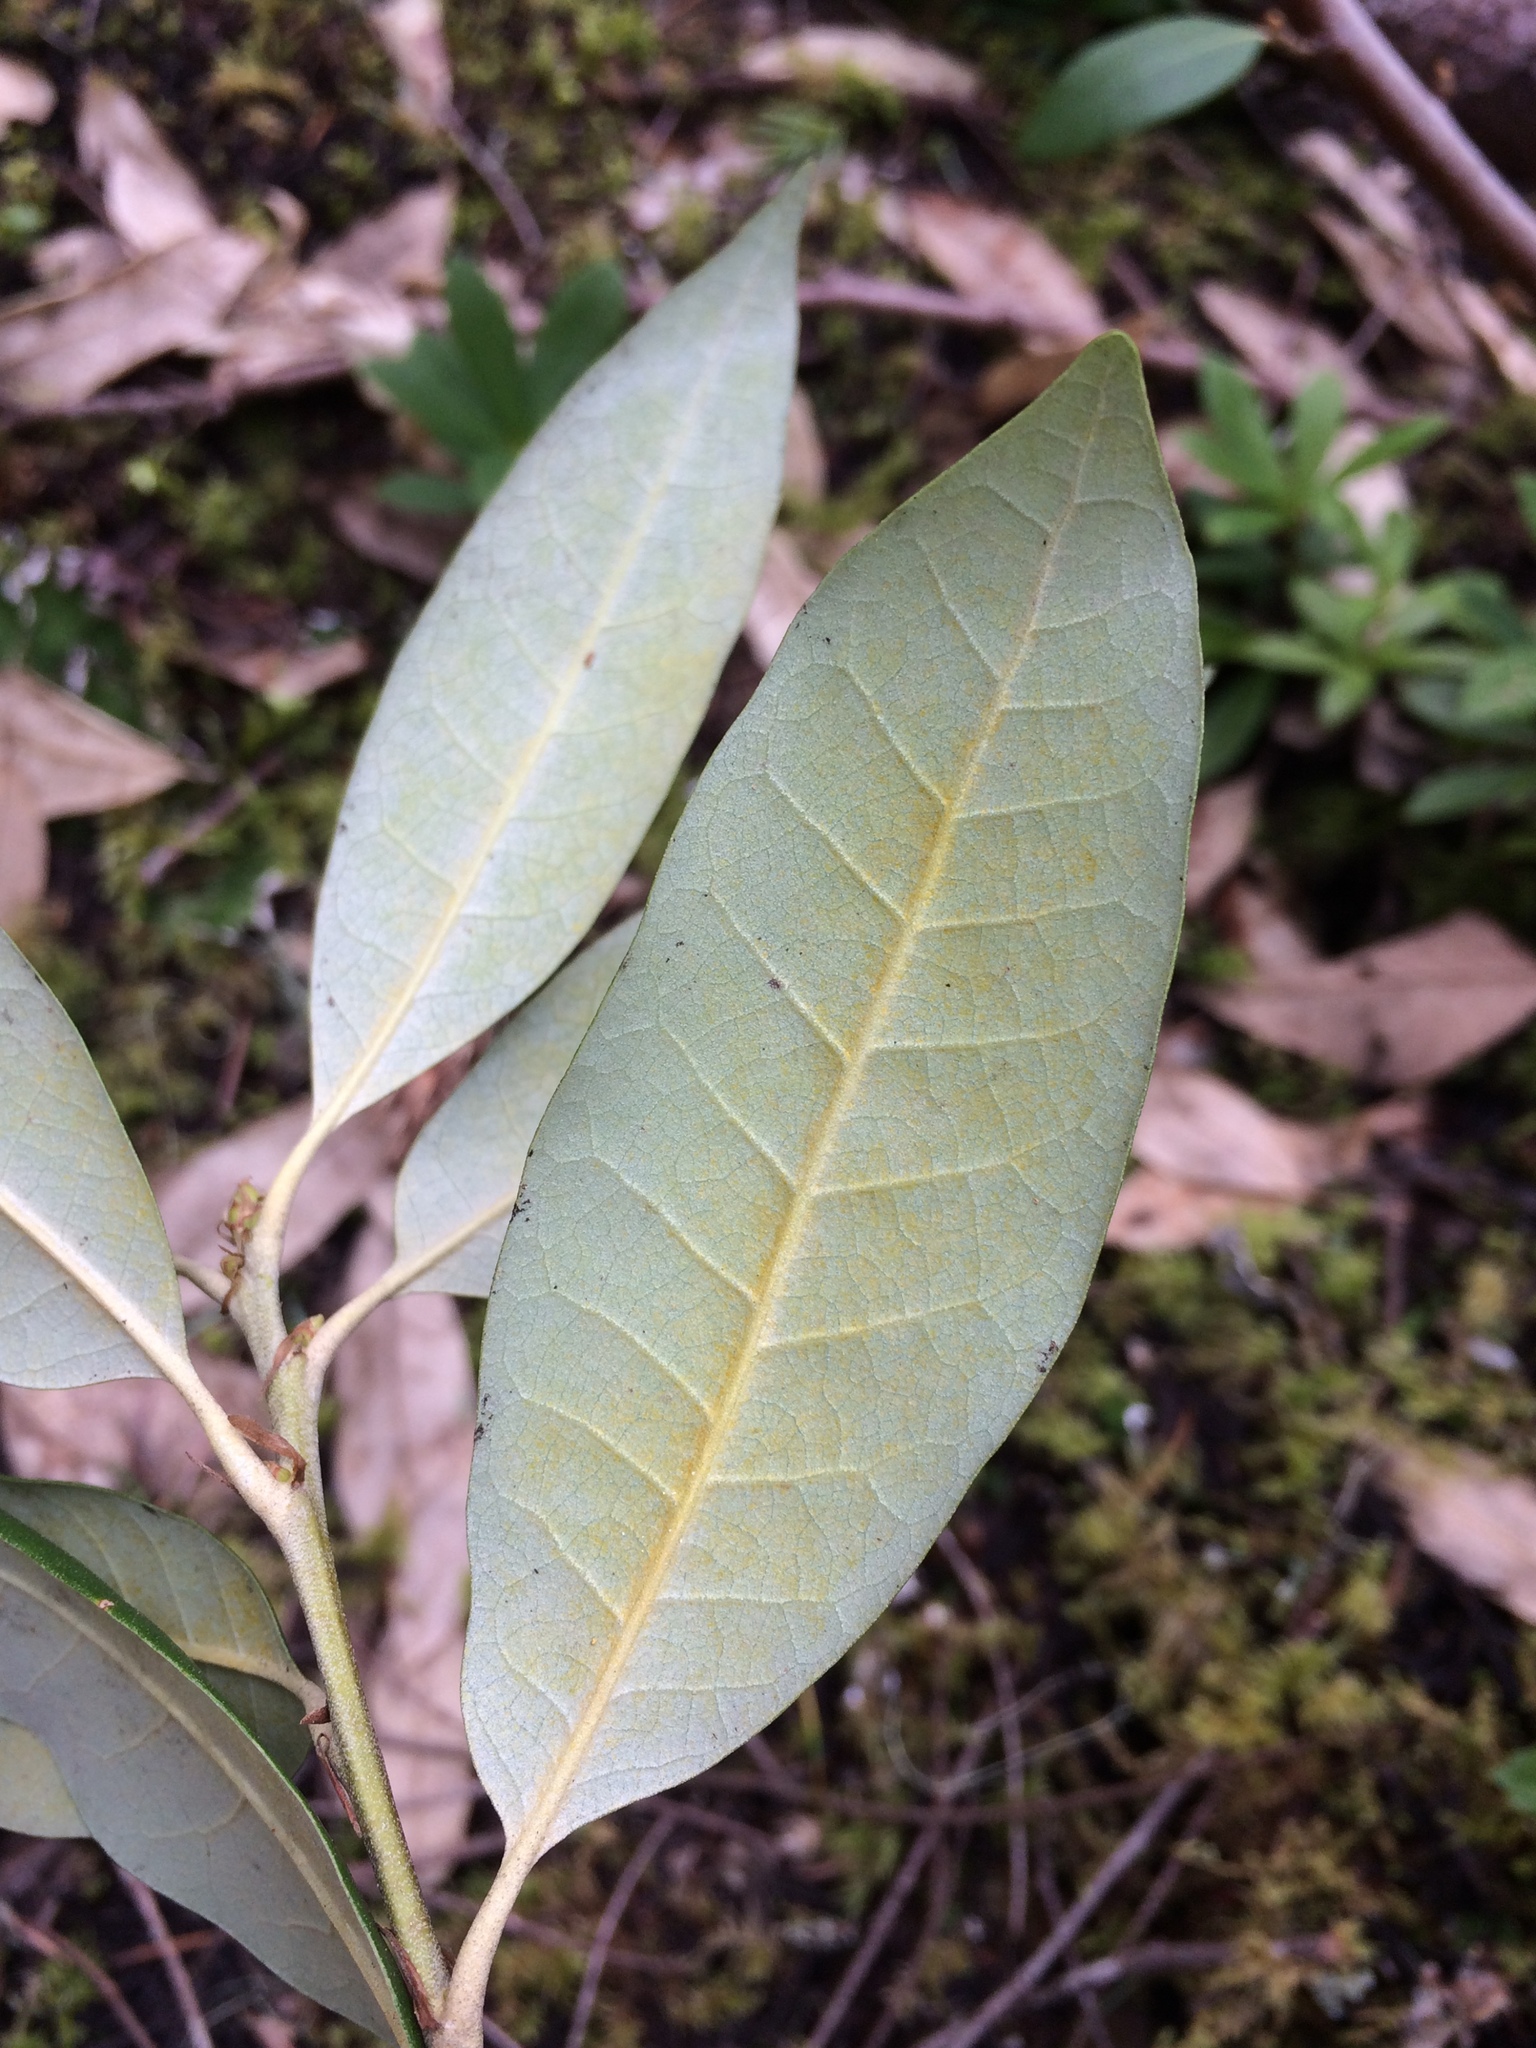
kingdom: Plantae
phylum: Tracheophyta
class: Magnoliopsida
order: Fagales
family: Fagaceae
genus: Chrysolepis
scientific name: Chrysolepis chrysophylla
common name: Giant chinquapin
